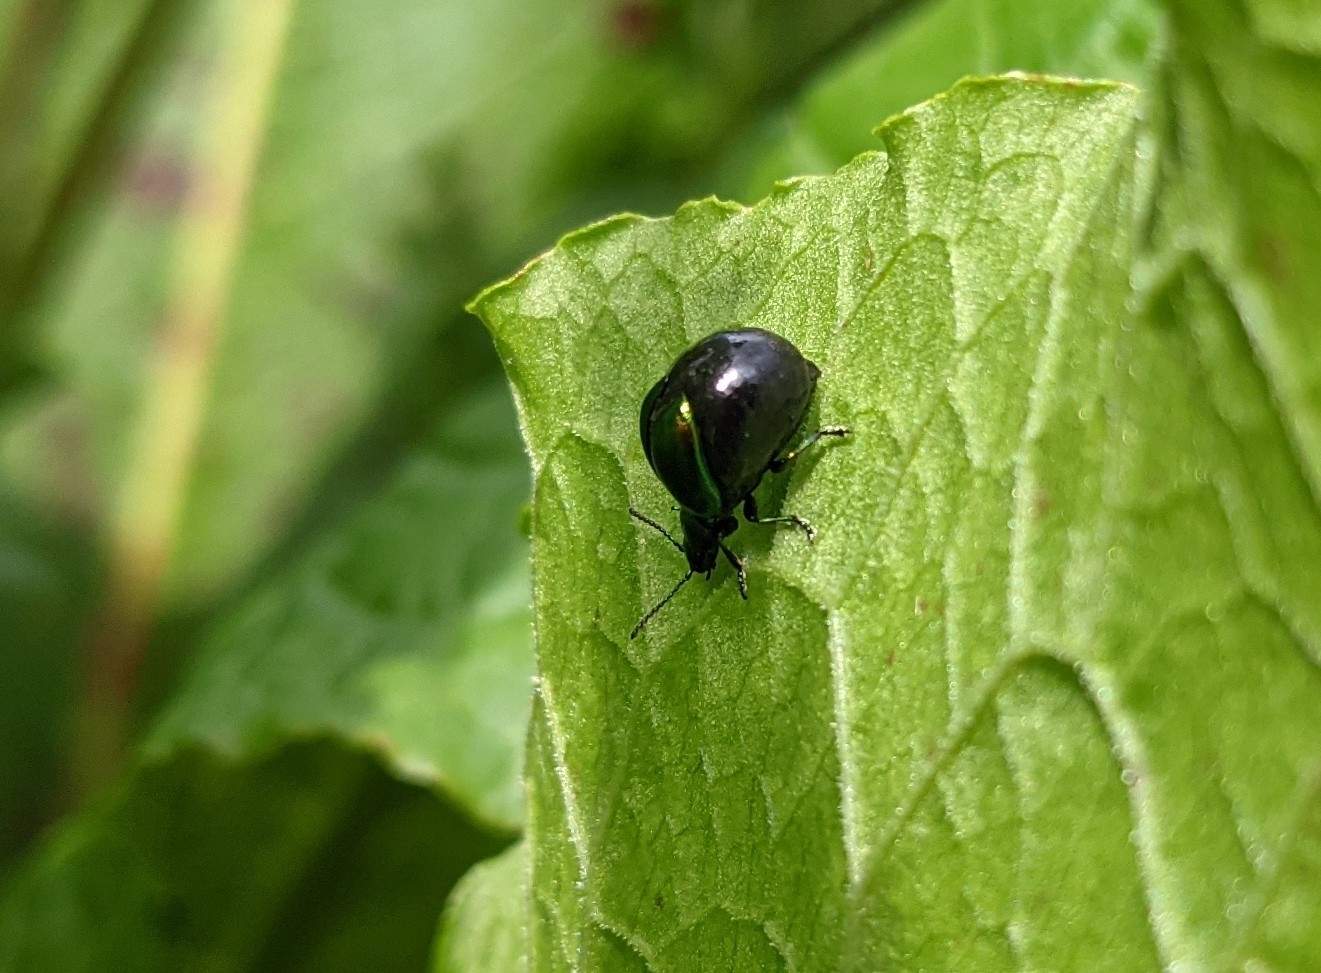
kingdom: Animalia
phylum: Arthropoda
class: Insecta
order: Coleoptera
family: Chrysomelidae
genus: Gastrophysa
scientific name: Gastrophysa viridula
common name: Green dock beetle
